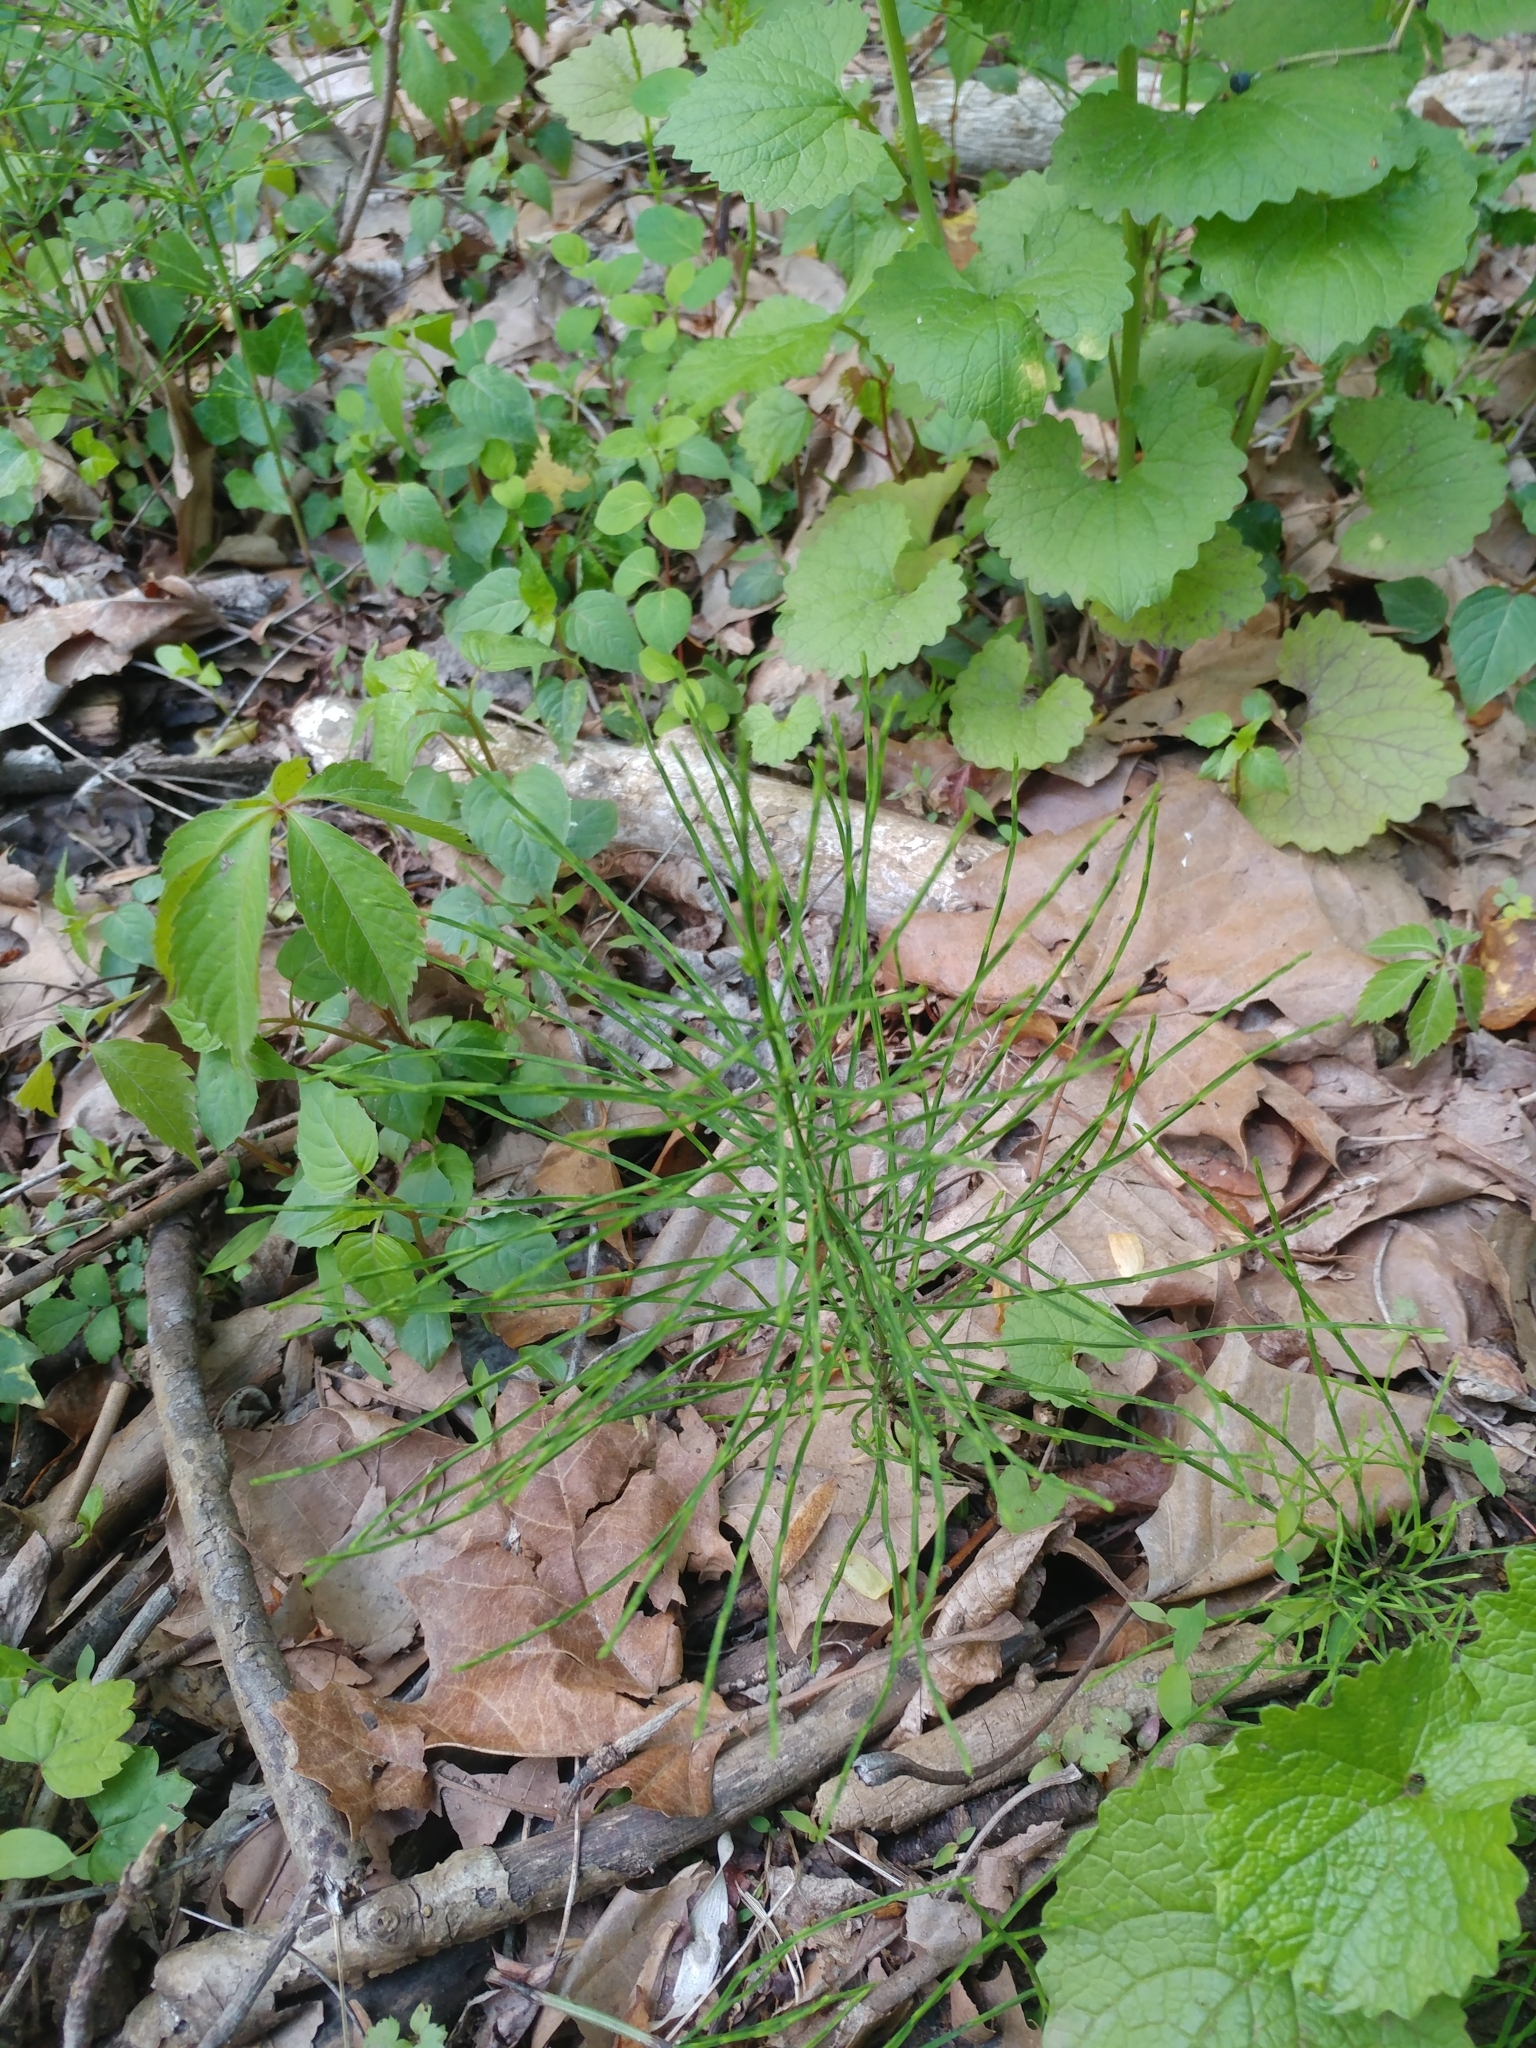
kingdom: Plantae
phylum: Tracheophyta
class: Polypodiopsida
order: Equisetales
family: Equisetaceae
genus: Equisetum
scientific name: Equisetum arvense
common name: Field horsetail
